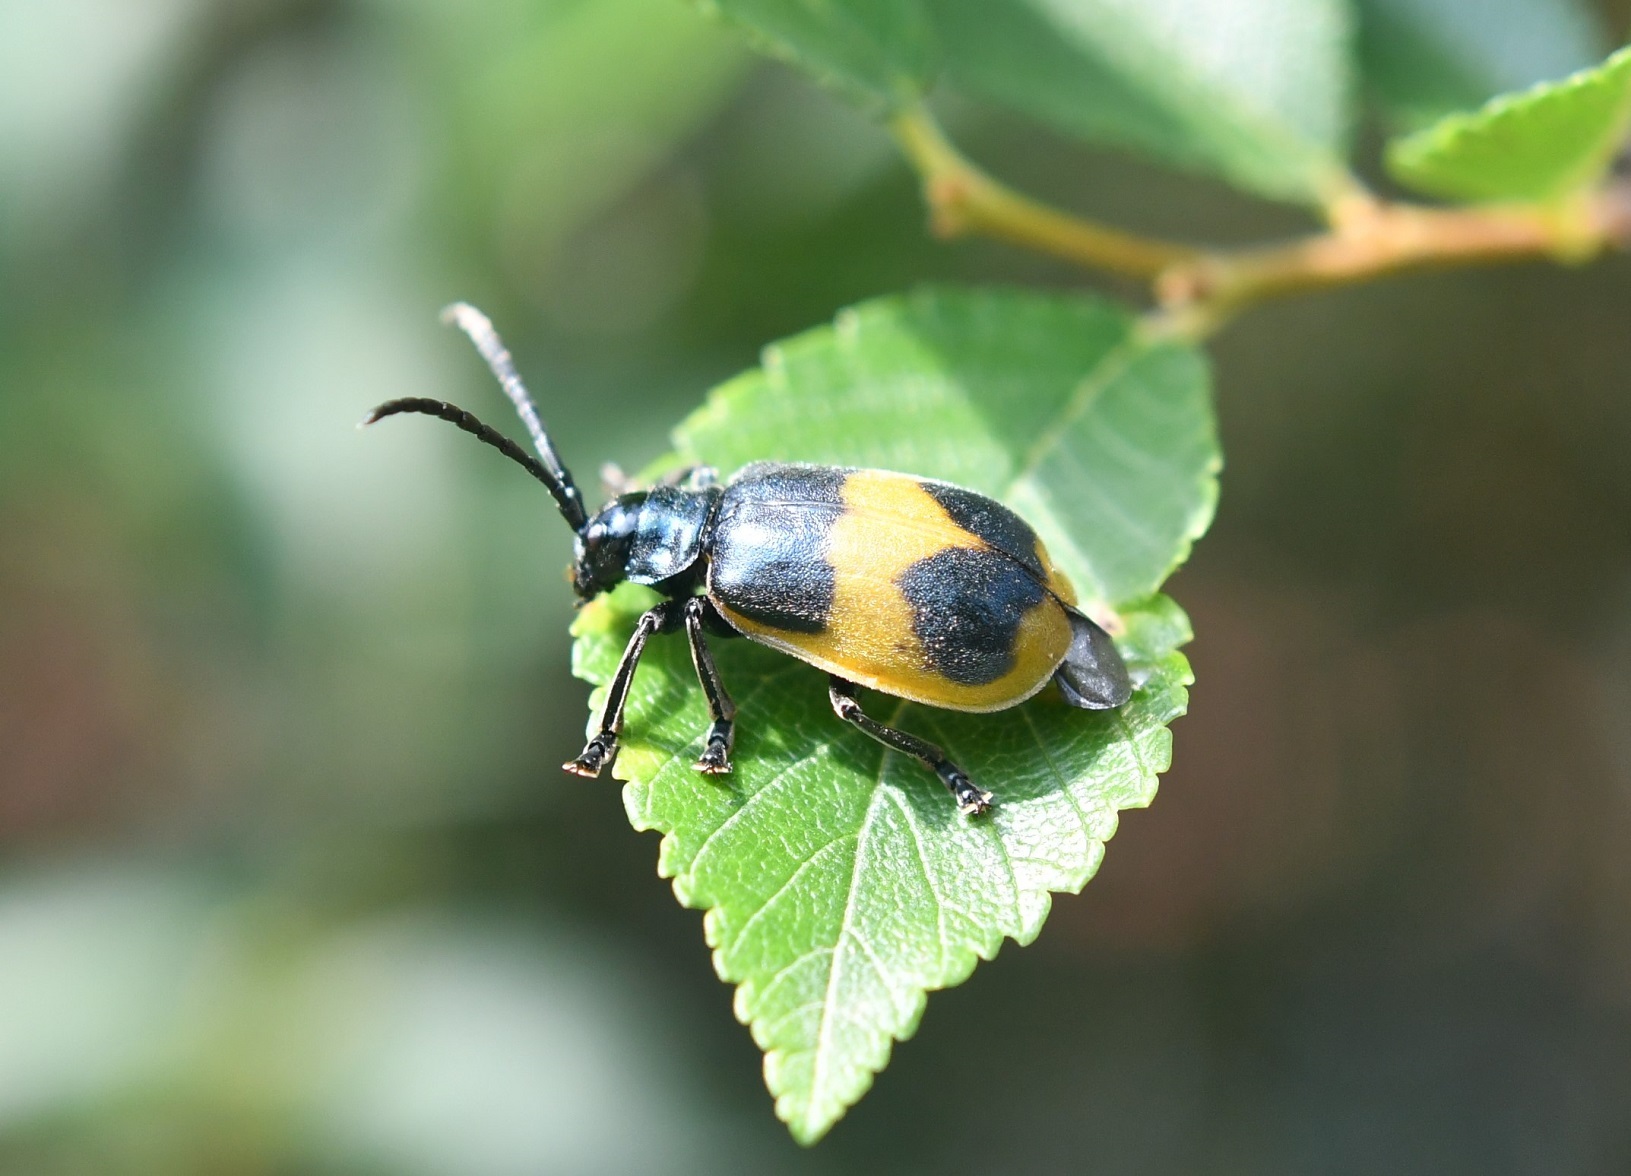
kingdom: Animalia
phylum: Arthropoda
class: Insecta
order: Coleoptera
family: Chrysomelidae
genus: Monocesta
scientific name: Monocesta
